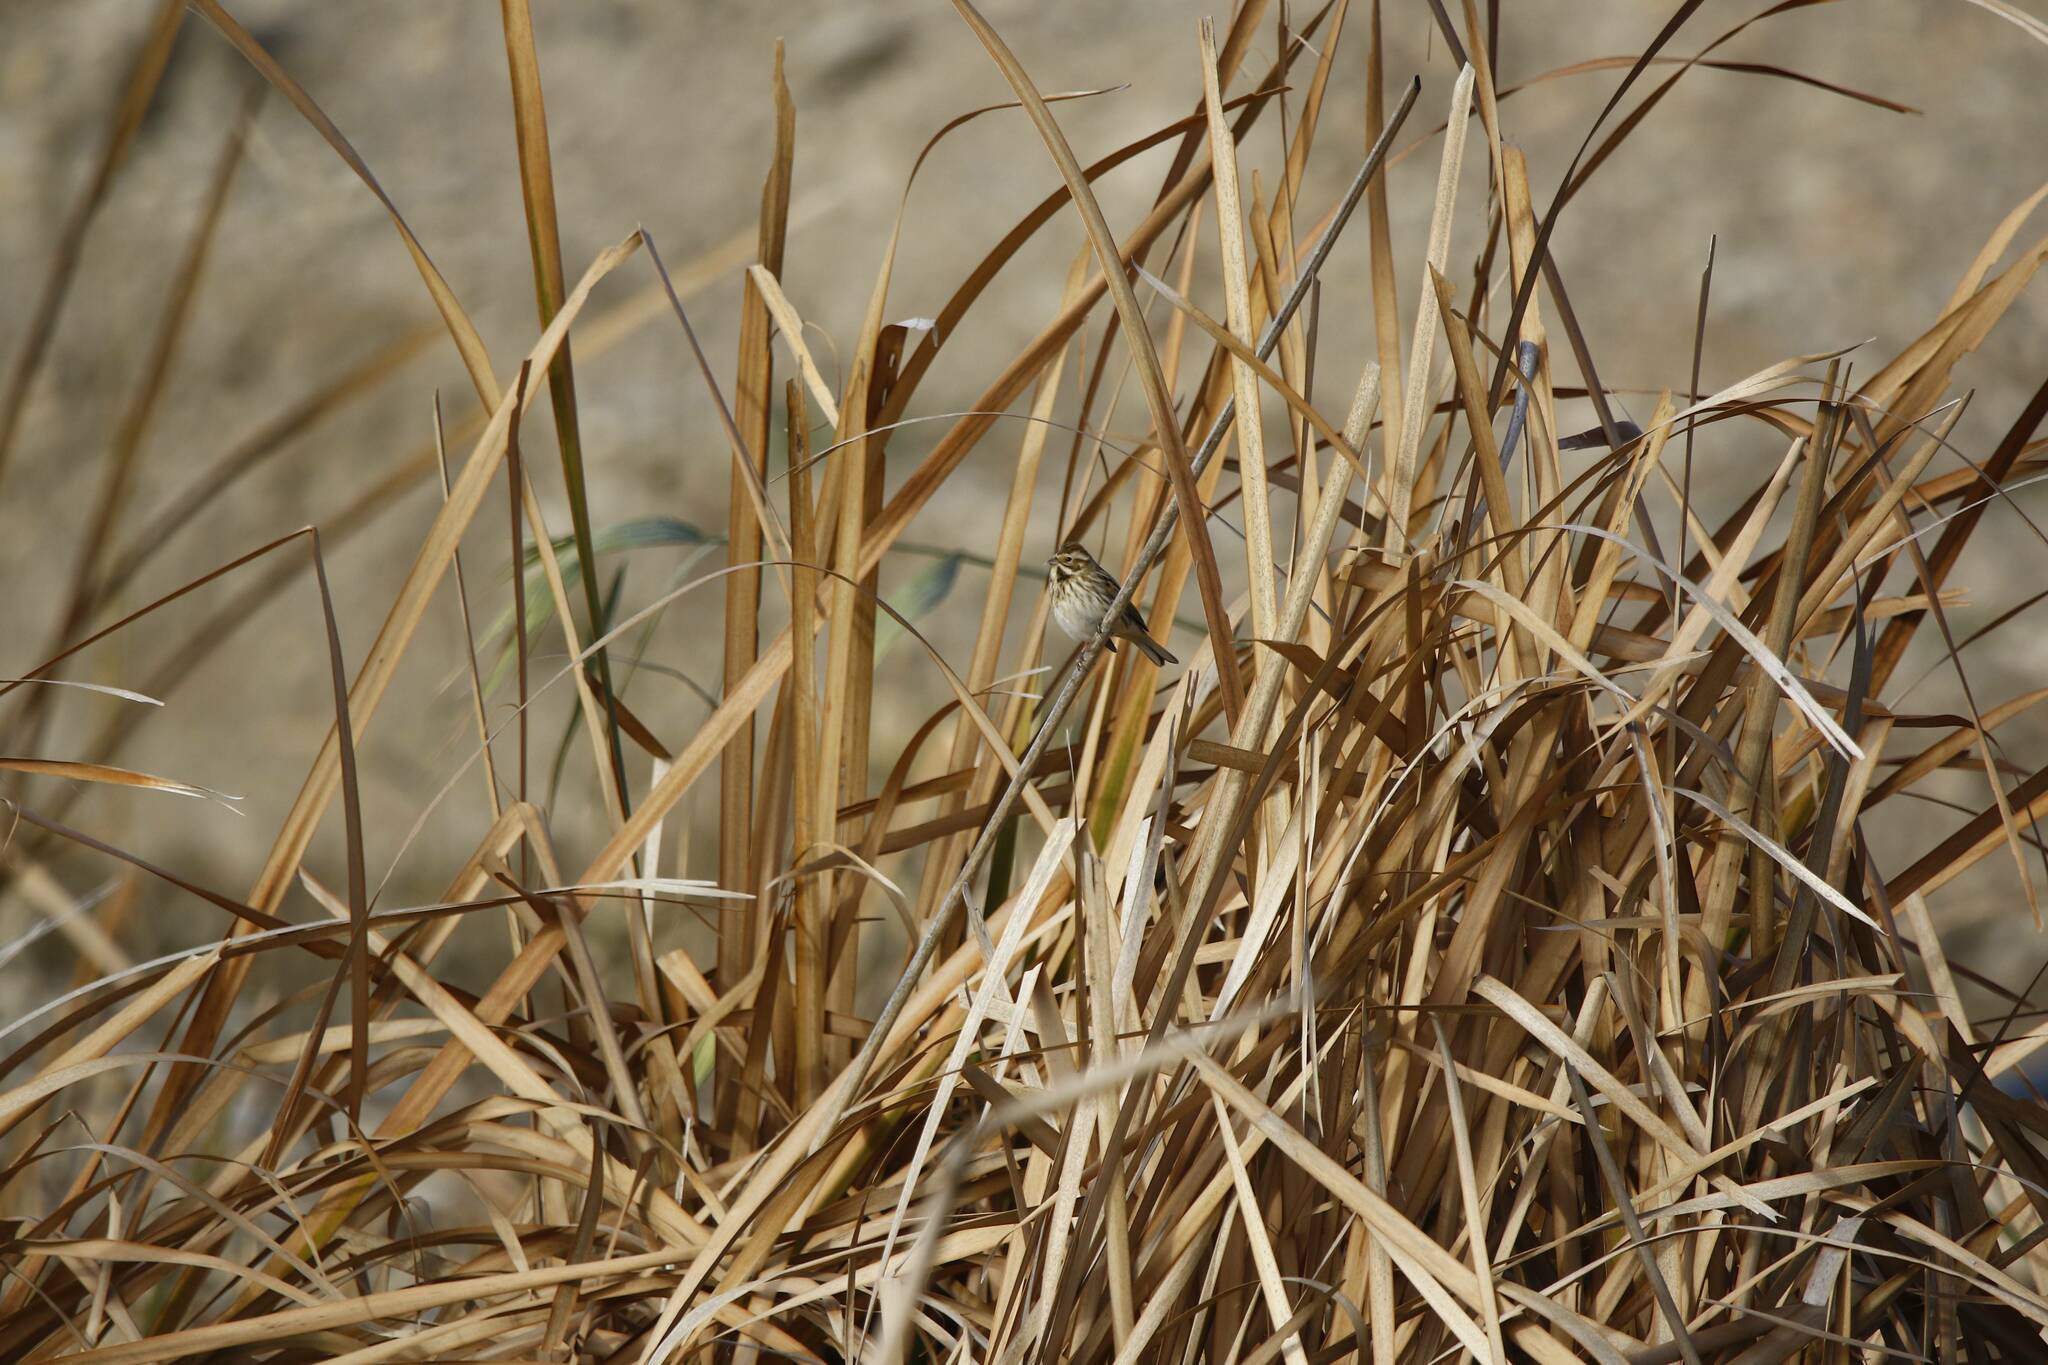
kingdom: Animalia
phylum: Chordata
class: Aves
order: Passeriformes
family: Emberizidae
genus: Emberiza
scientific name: Emberiza schoeniclus
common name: Reed bunting
